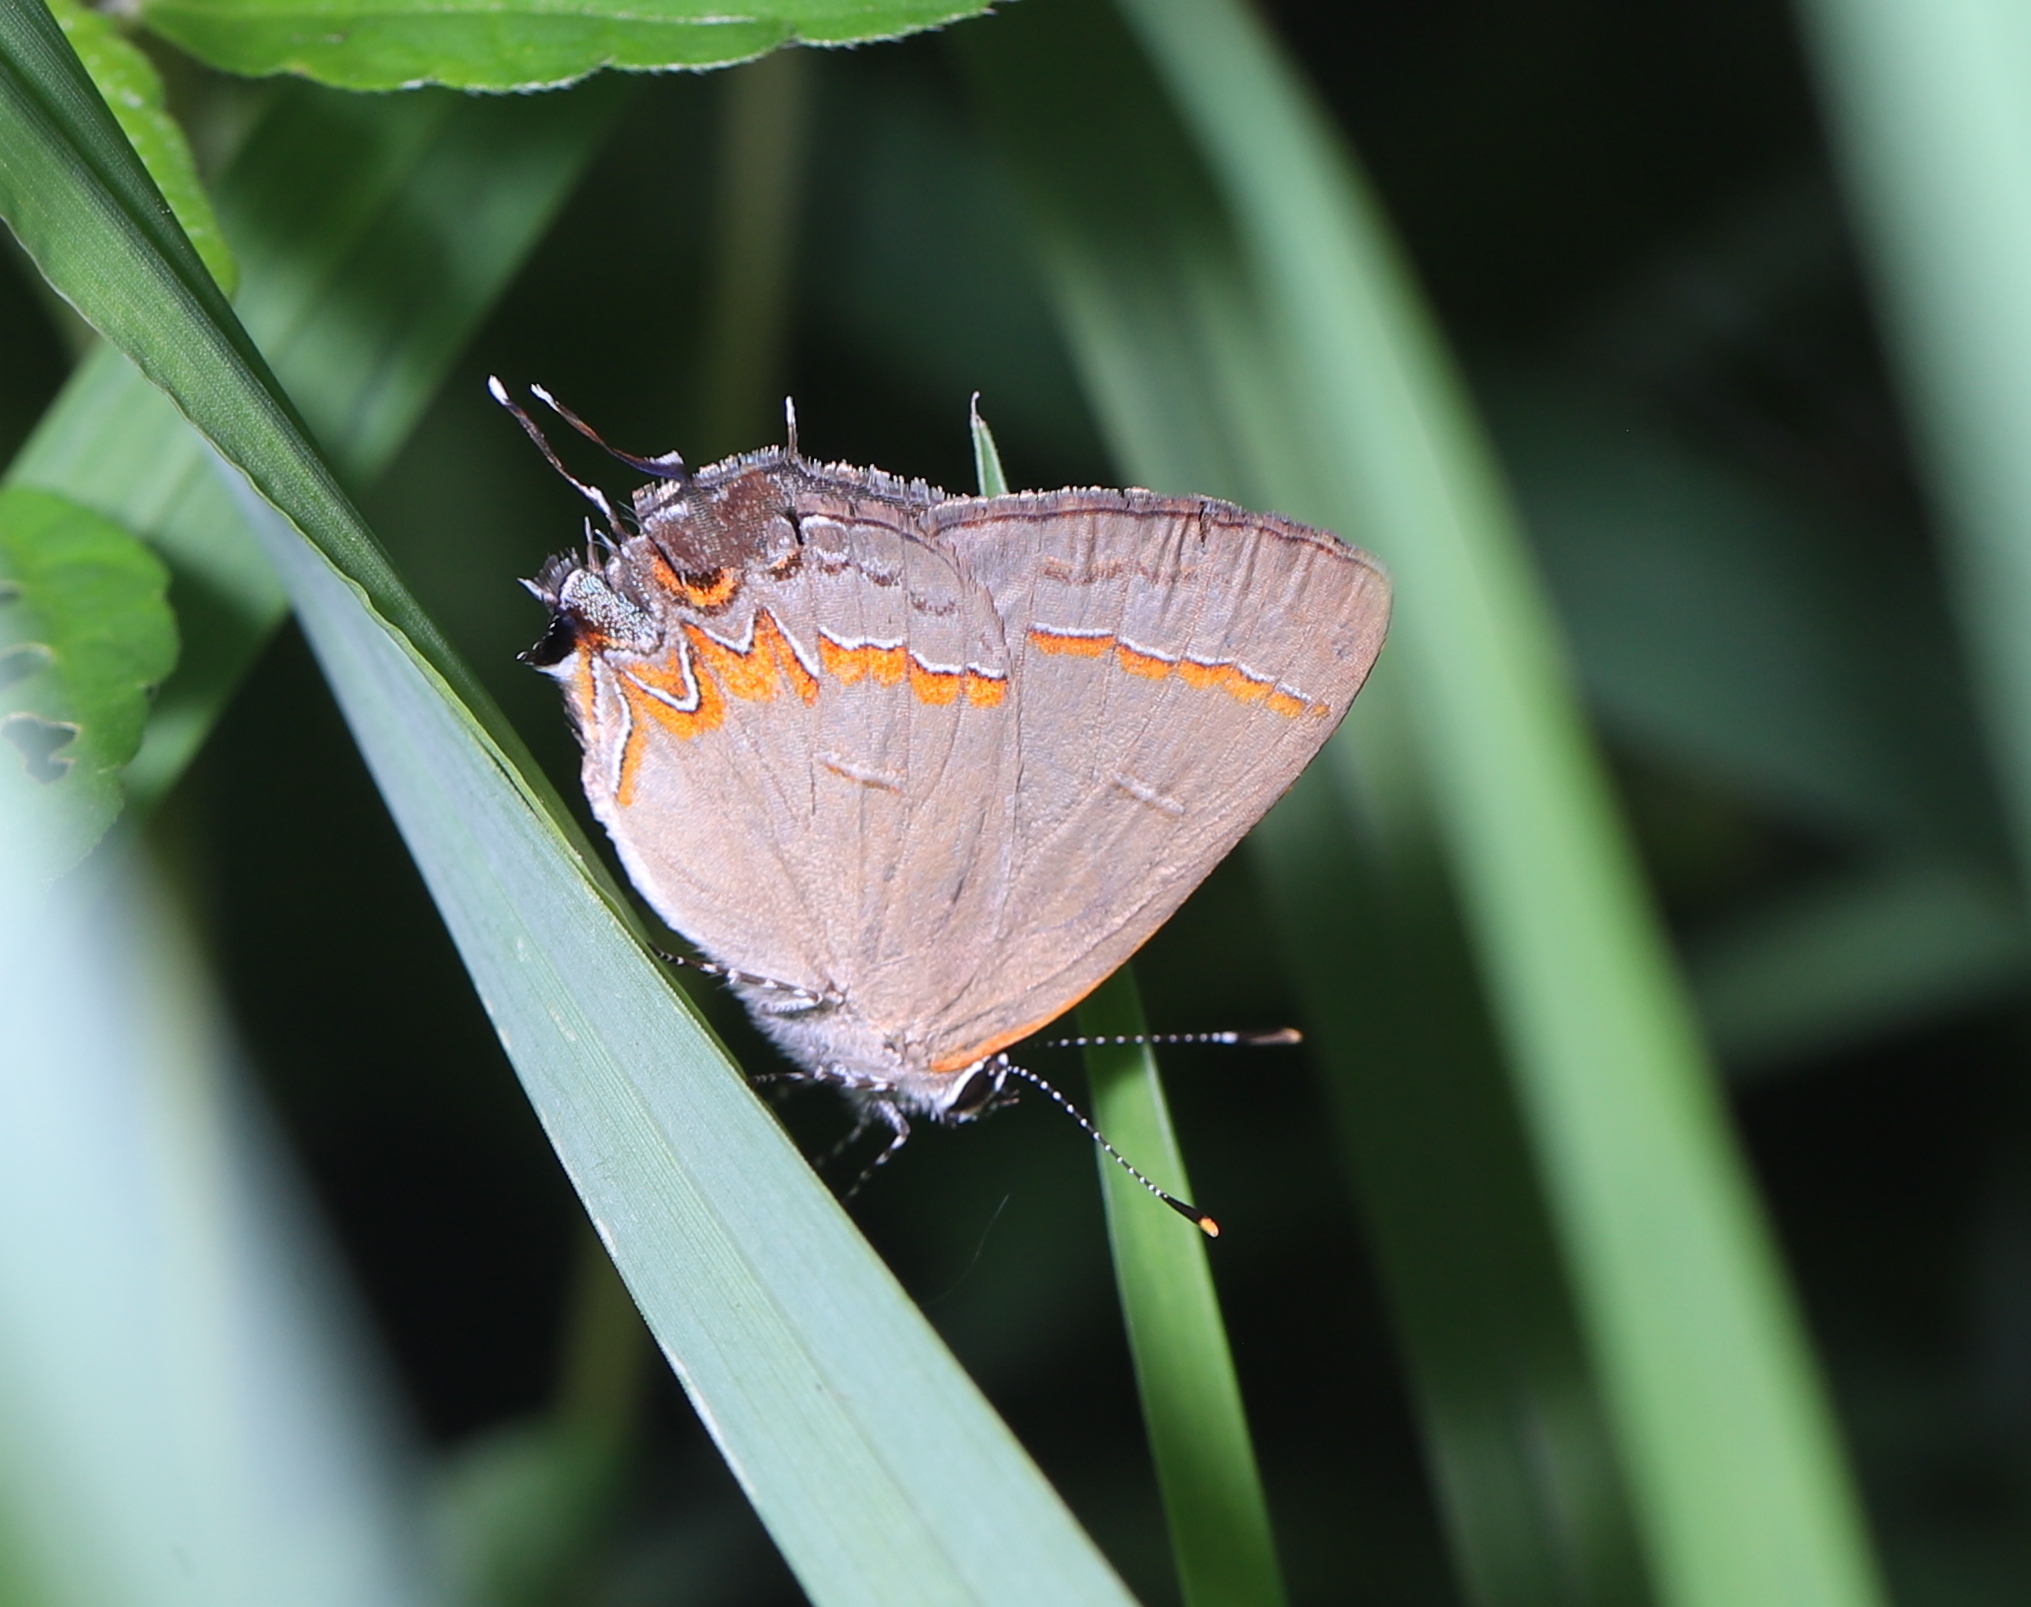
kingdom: Animalia
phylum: Arthropoda
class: Insecta
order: Lepidoptera
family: Lycaenidae
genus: Calycopis
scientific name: Calycopis cecrops
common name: Red-banded hairstreak
